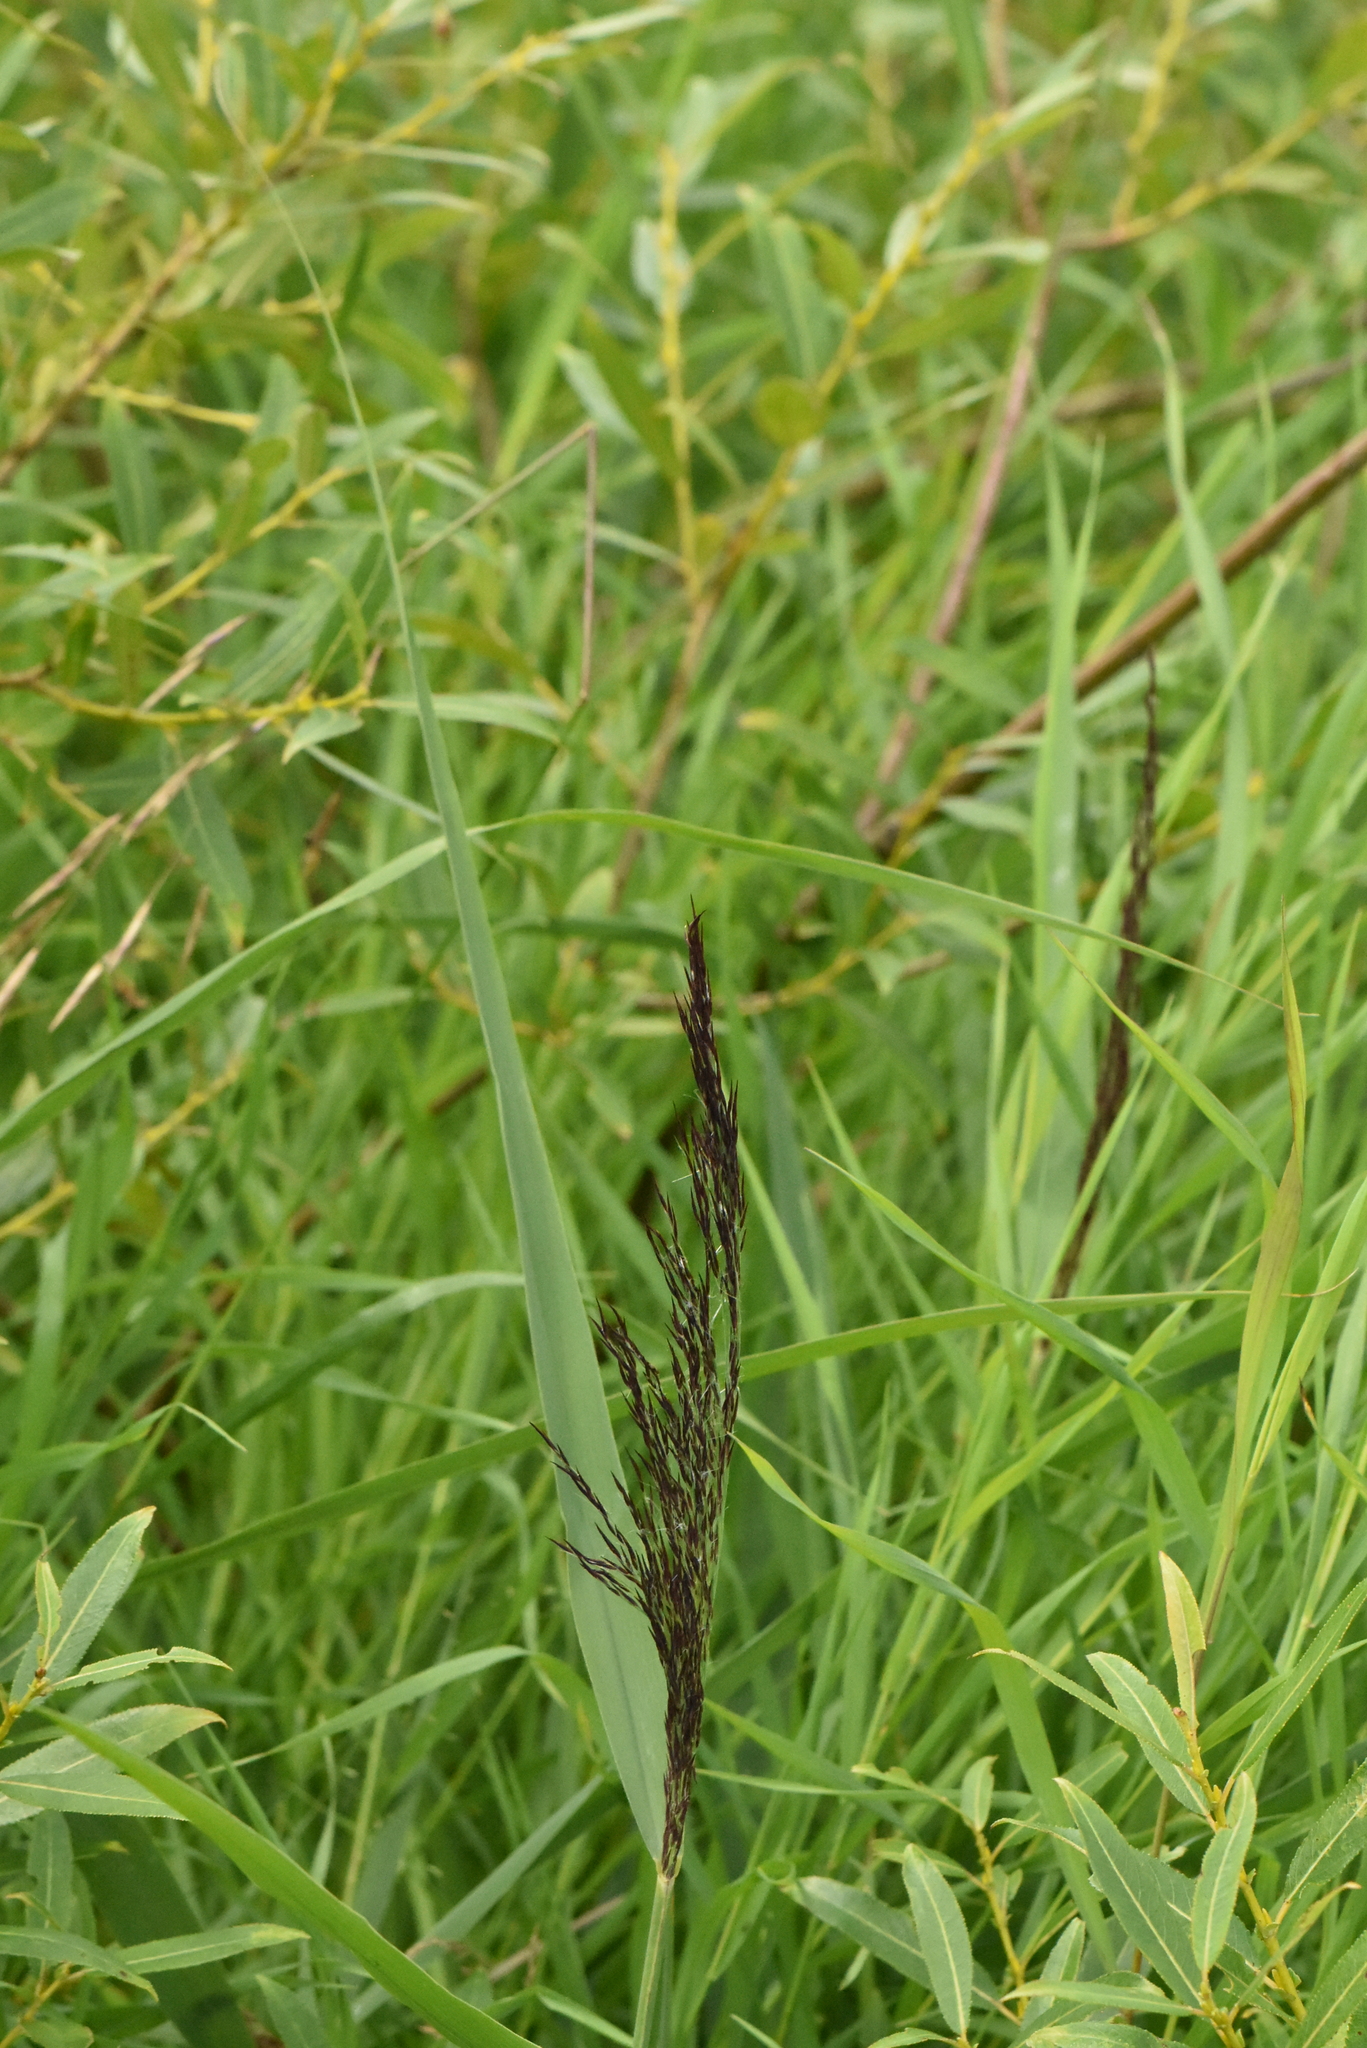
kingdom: Plantae
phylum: Tracheophyta
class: Liliopsida
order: Poales
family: Poaceae
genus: Phragmites
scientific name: Phragmites australis
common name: Common reed
